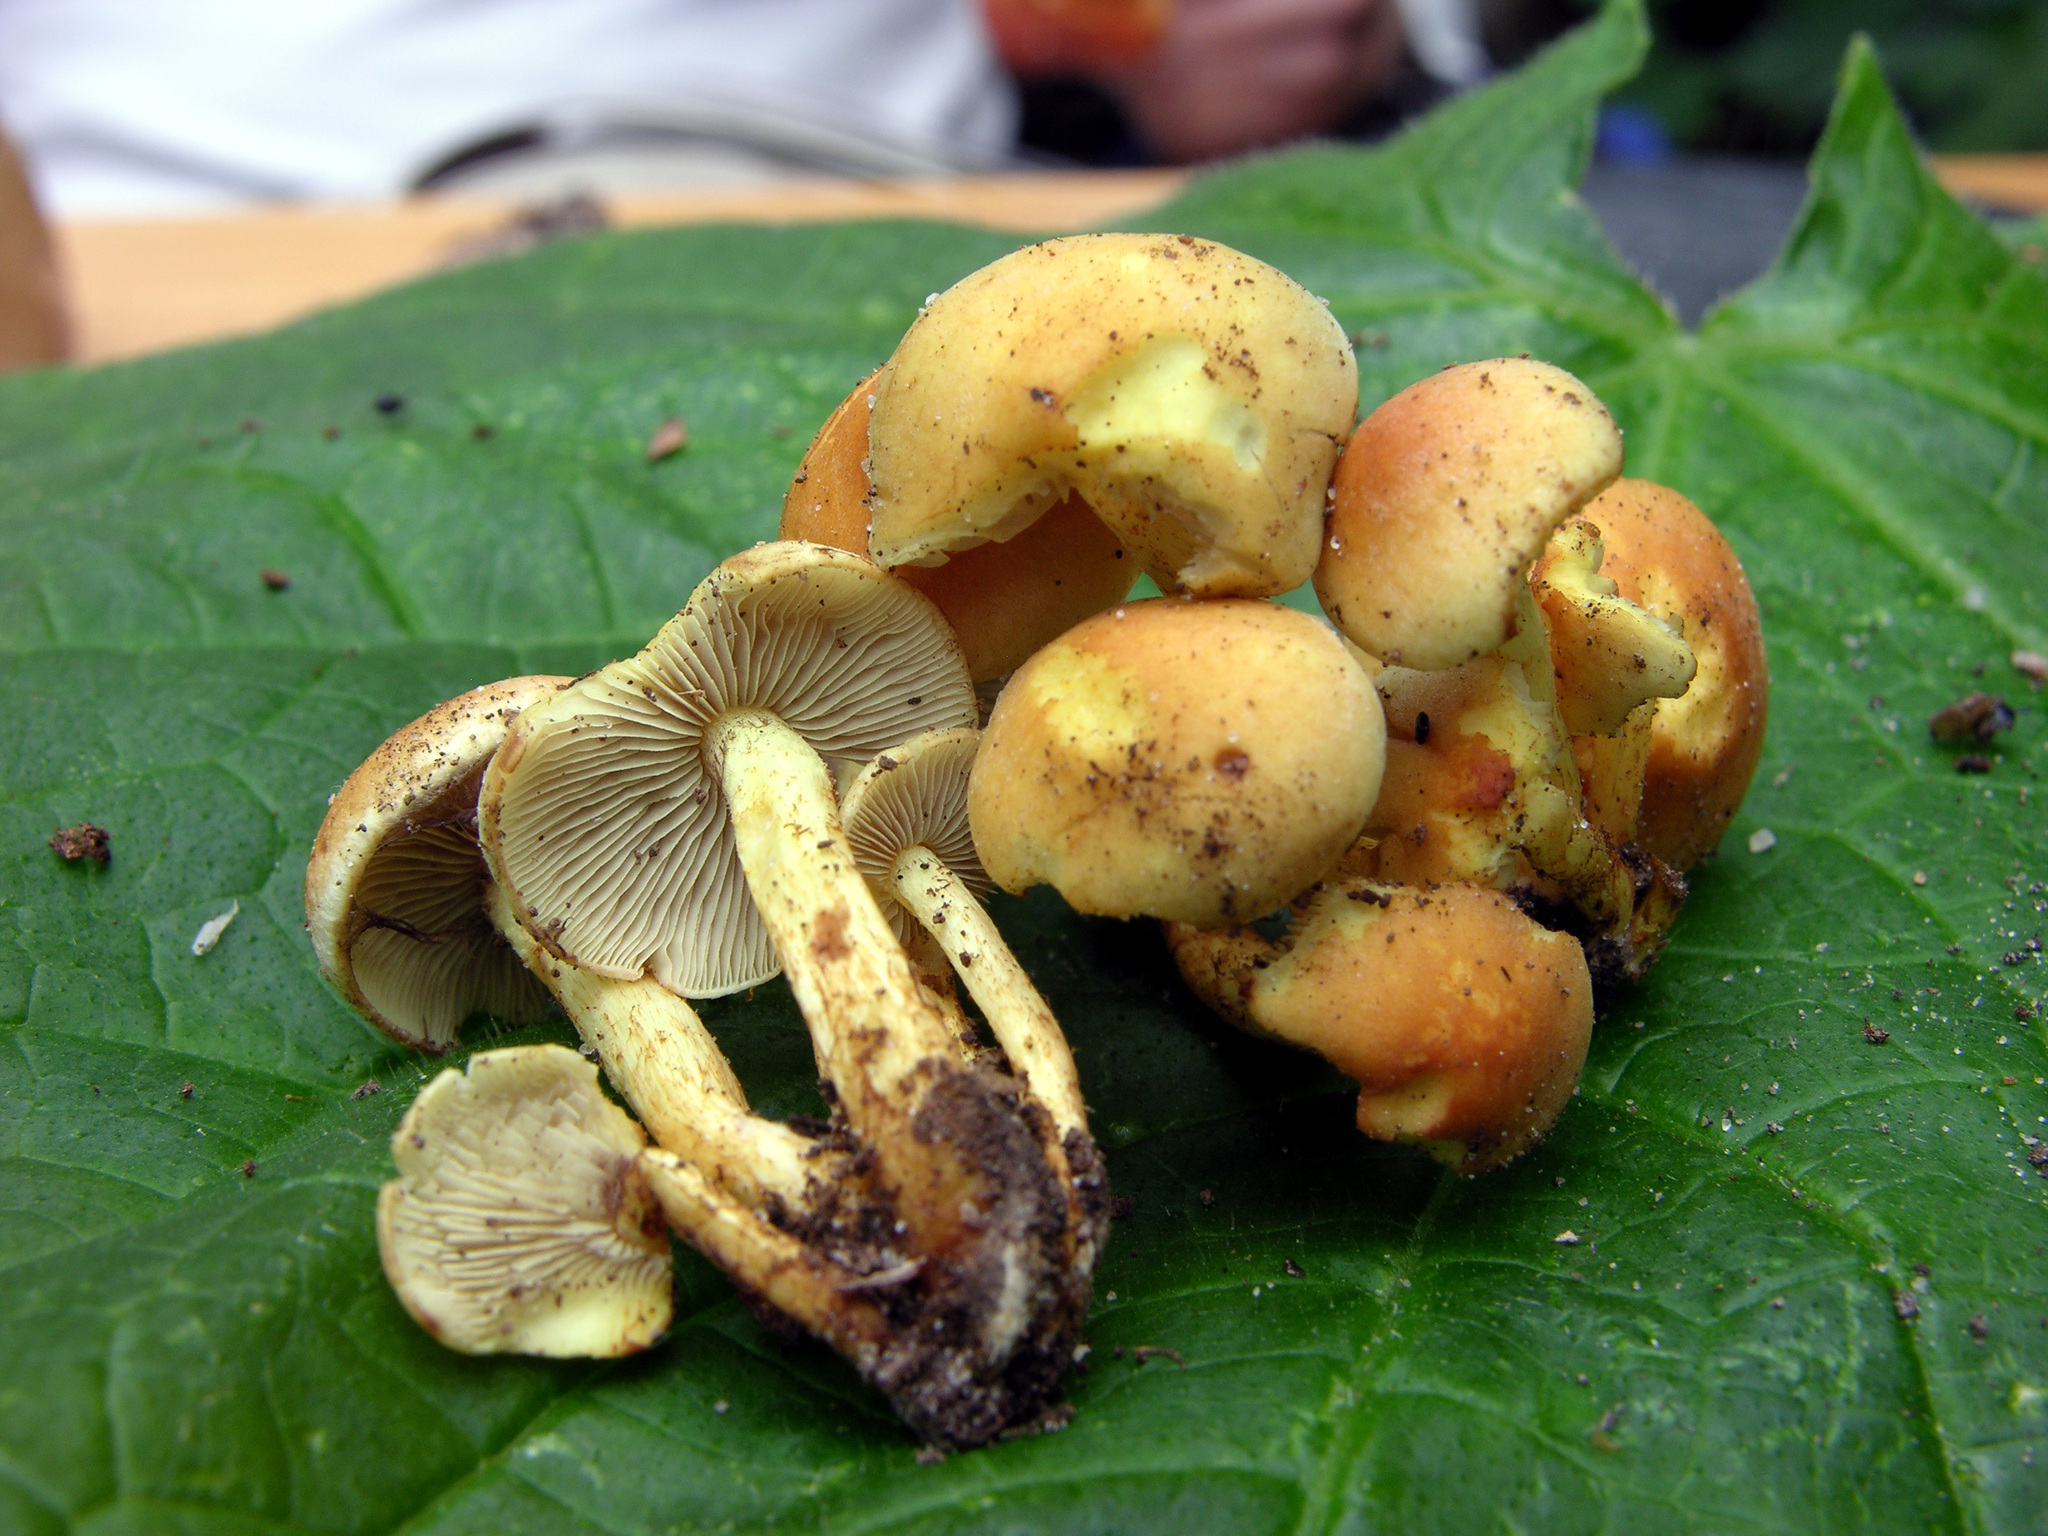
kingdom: Fungi
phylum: Basidiomycota
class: Agaricomycetes
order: Agaricales
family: Strophariaceae
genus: Hypholoma
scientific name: Hypholoma fasciculare
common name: Sulphur tuft
